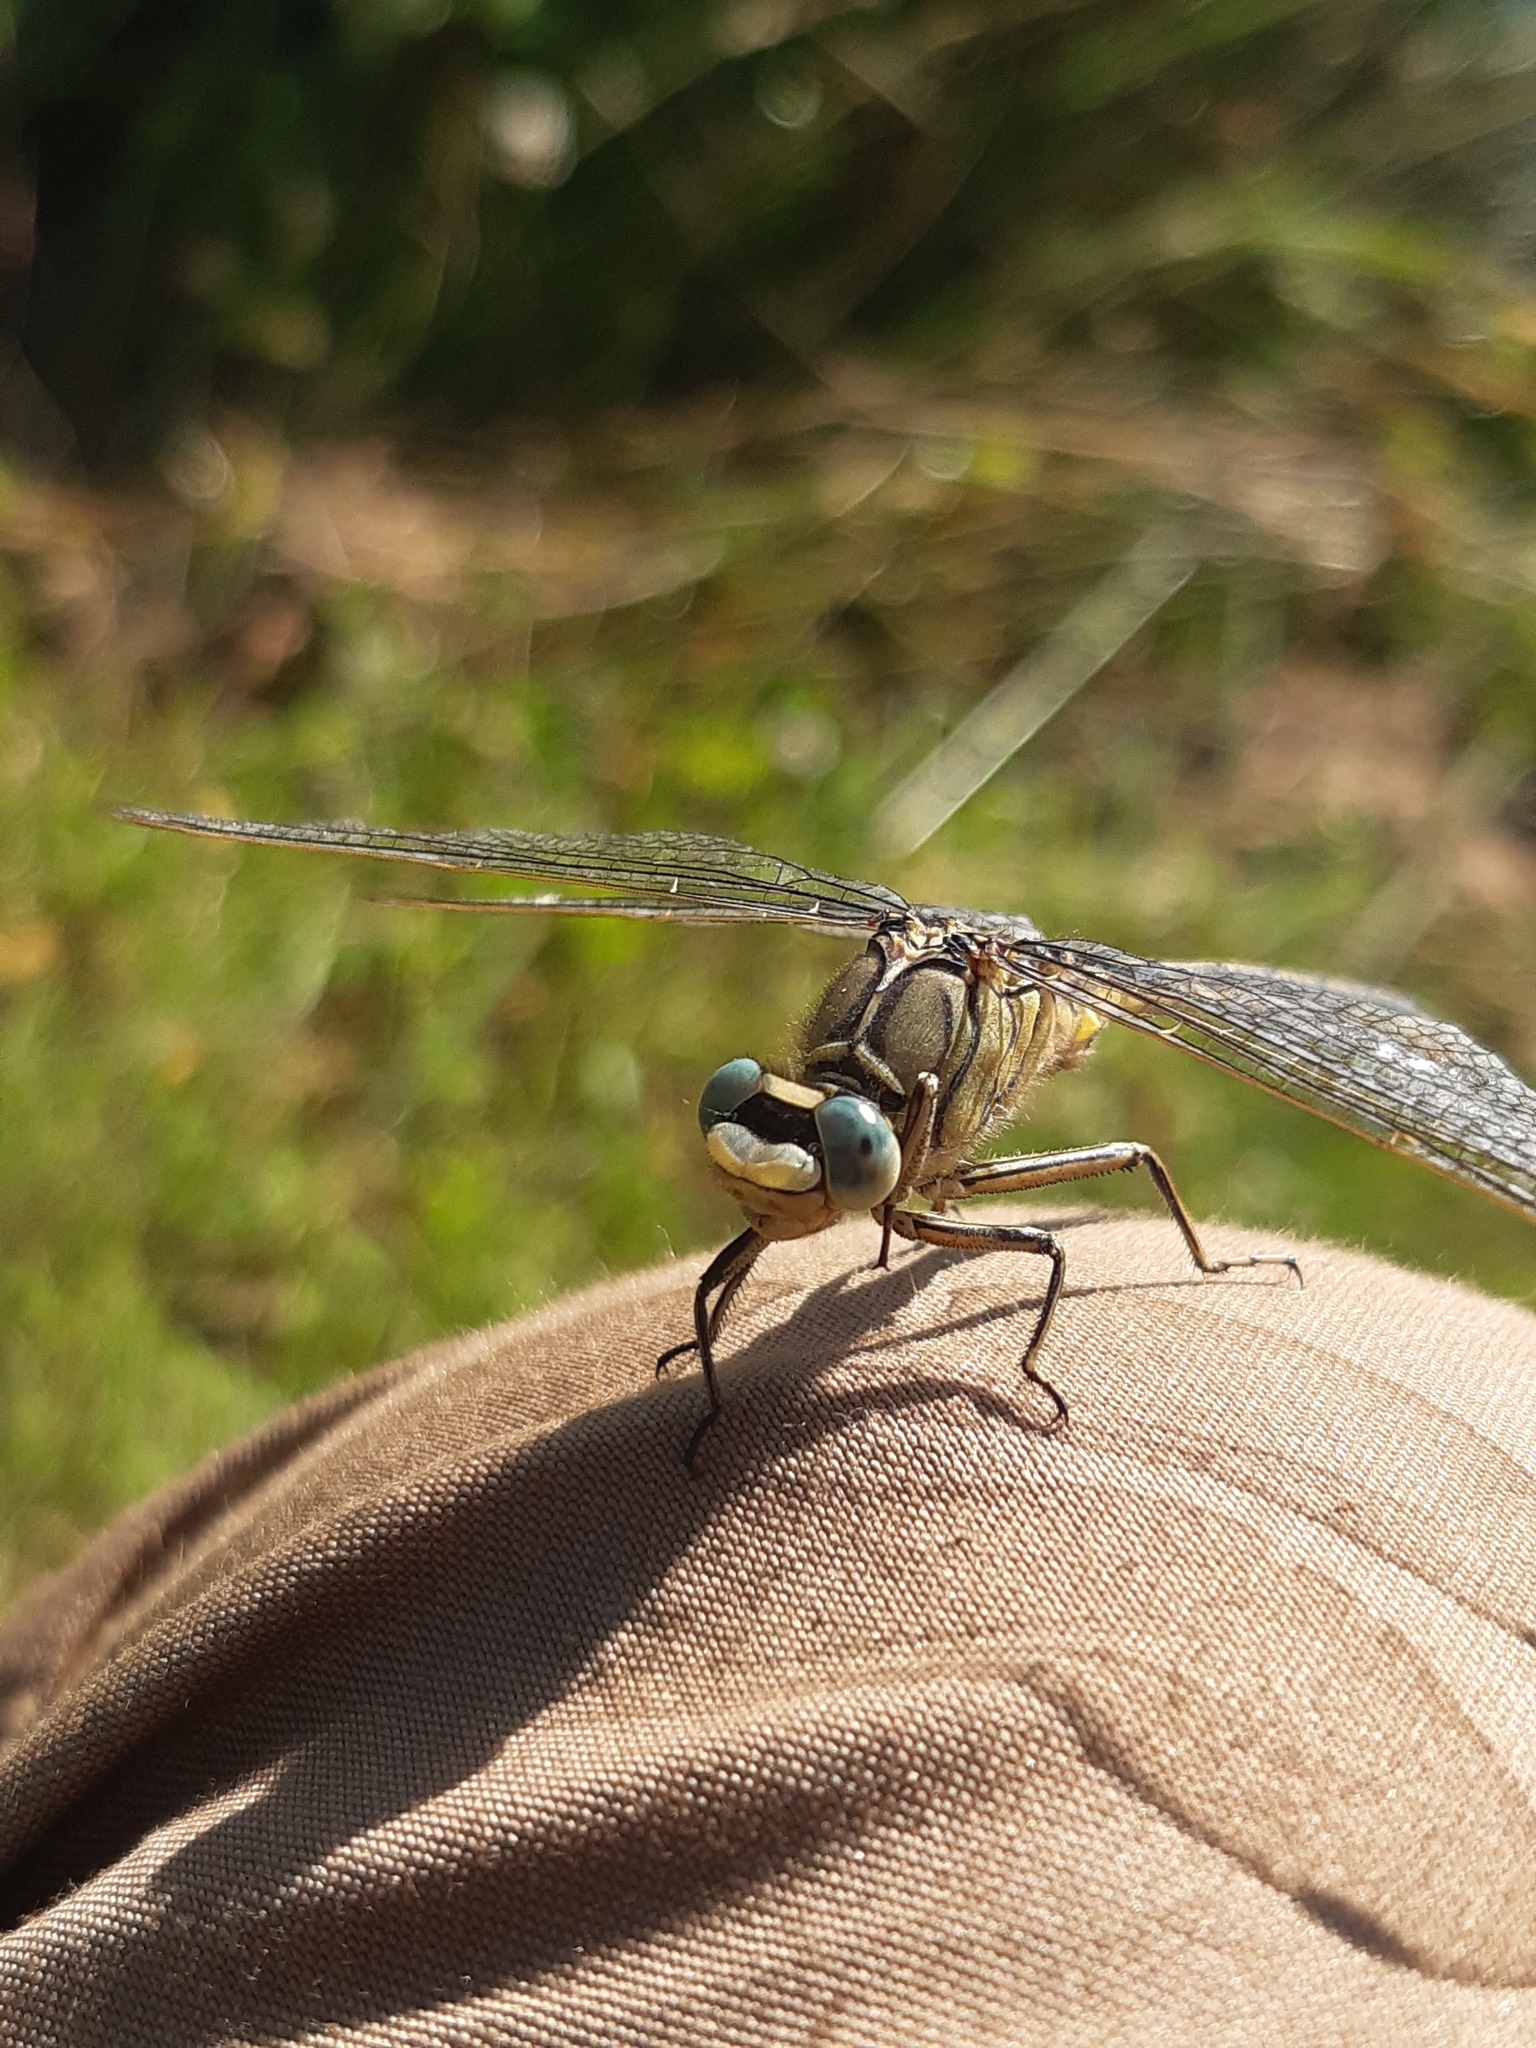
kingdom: Animalia
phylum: Arthropoda
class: Insecta
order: Odonata
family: Gomphidae
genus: Gomphus
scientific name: Gomphus pulchellus
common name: Western clubtail
